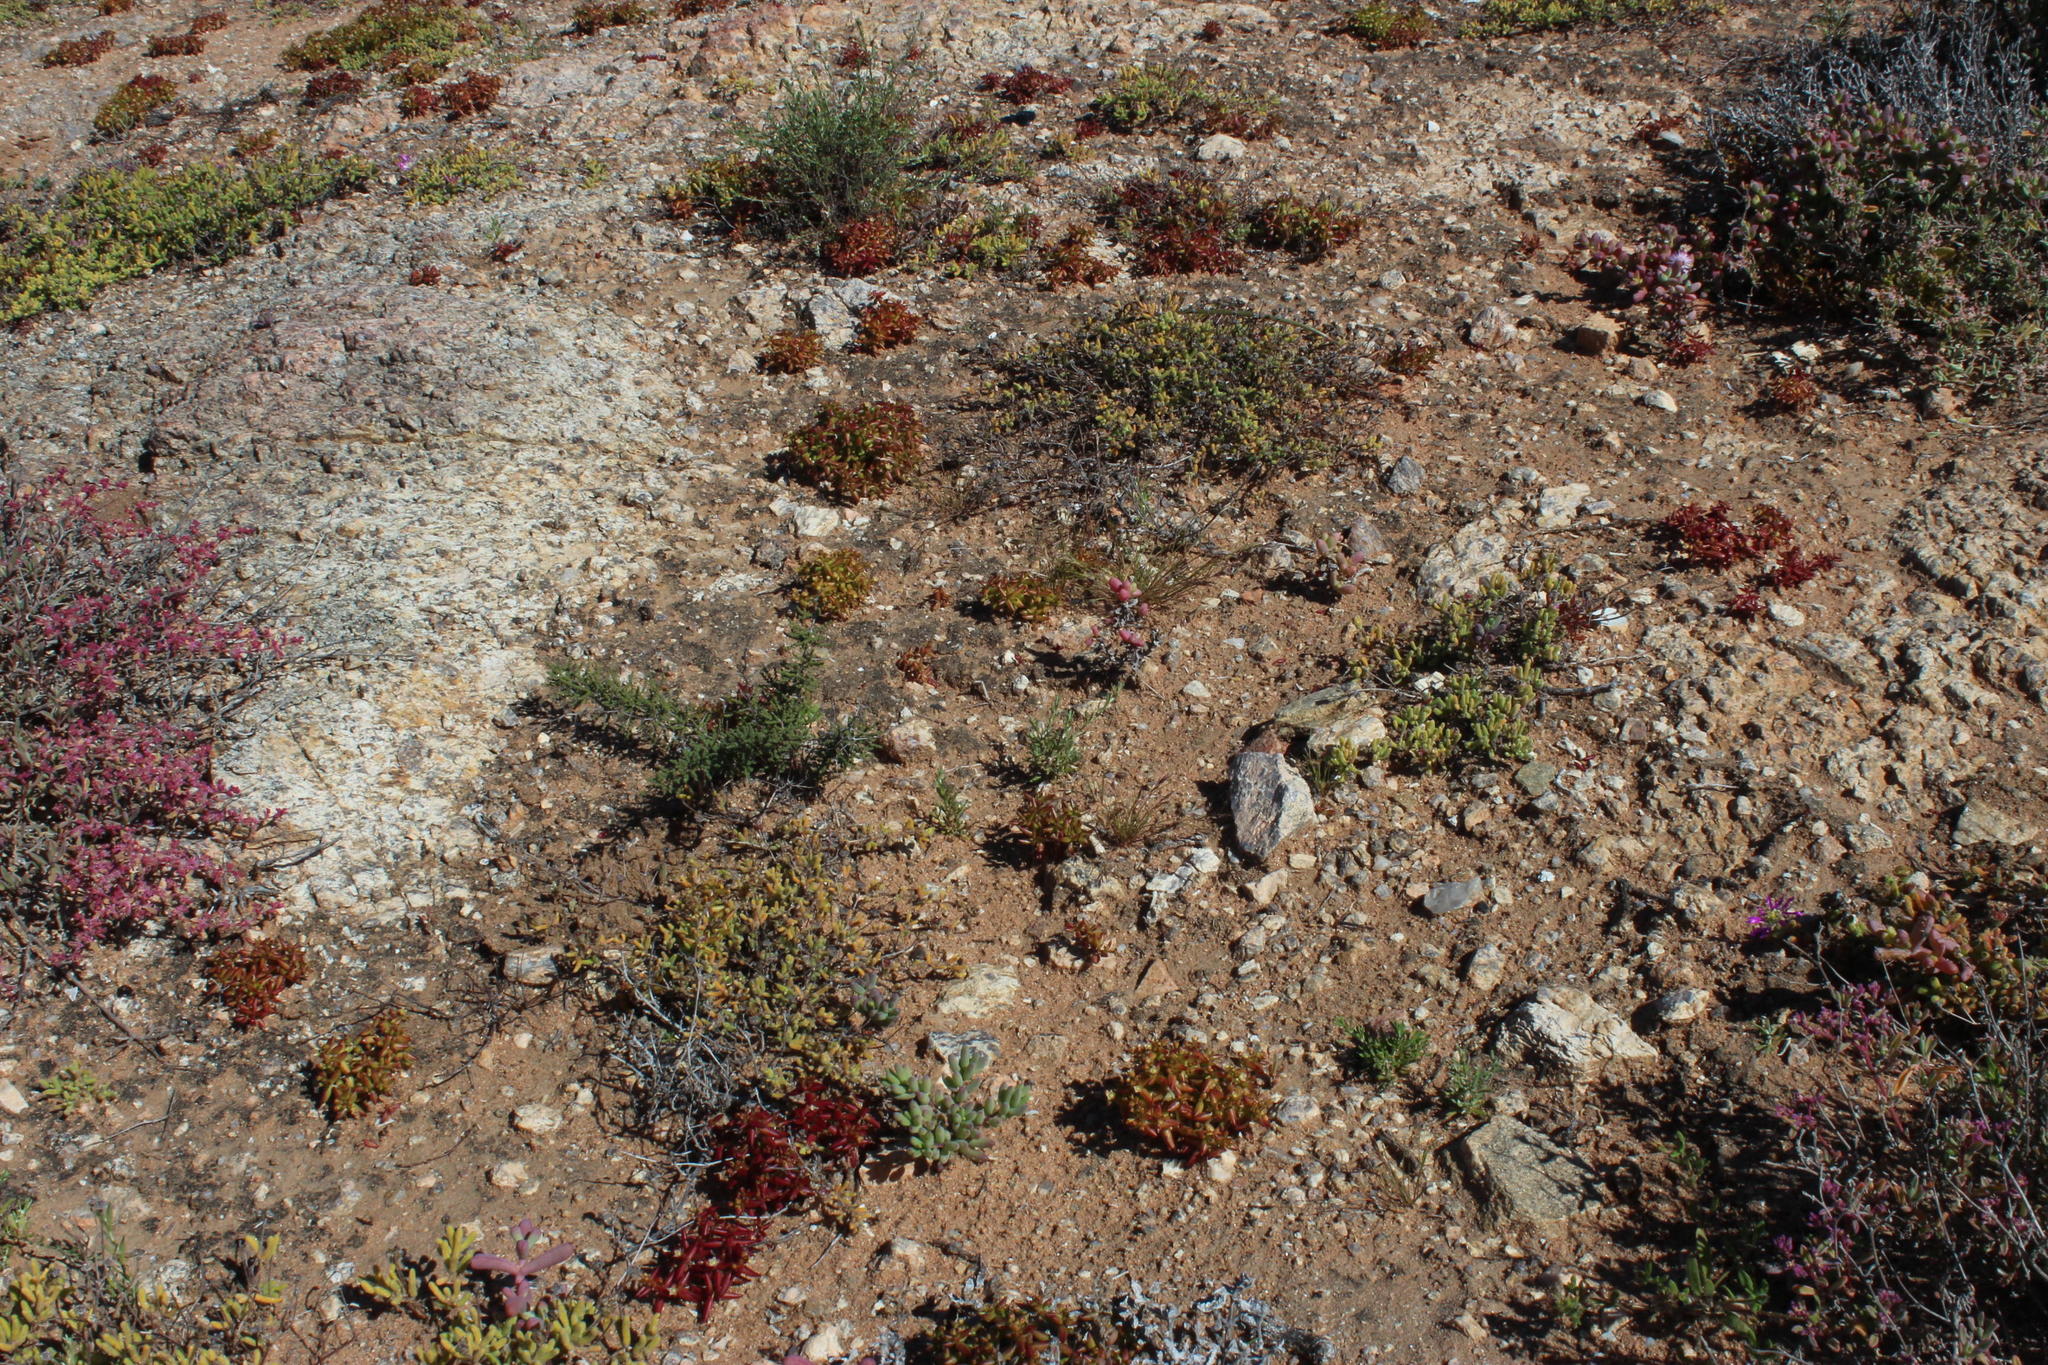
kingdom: Plantae
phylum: Tracheophyta
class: Magnoliopsida
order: Saxifragales
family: Crassulaceae
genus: Crassula
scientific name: Crassula expansa
